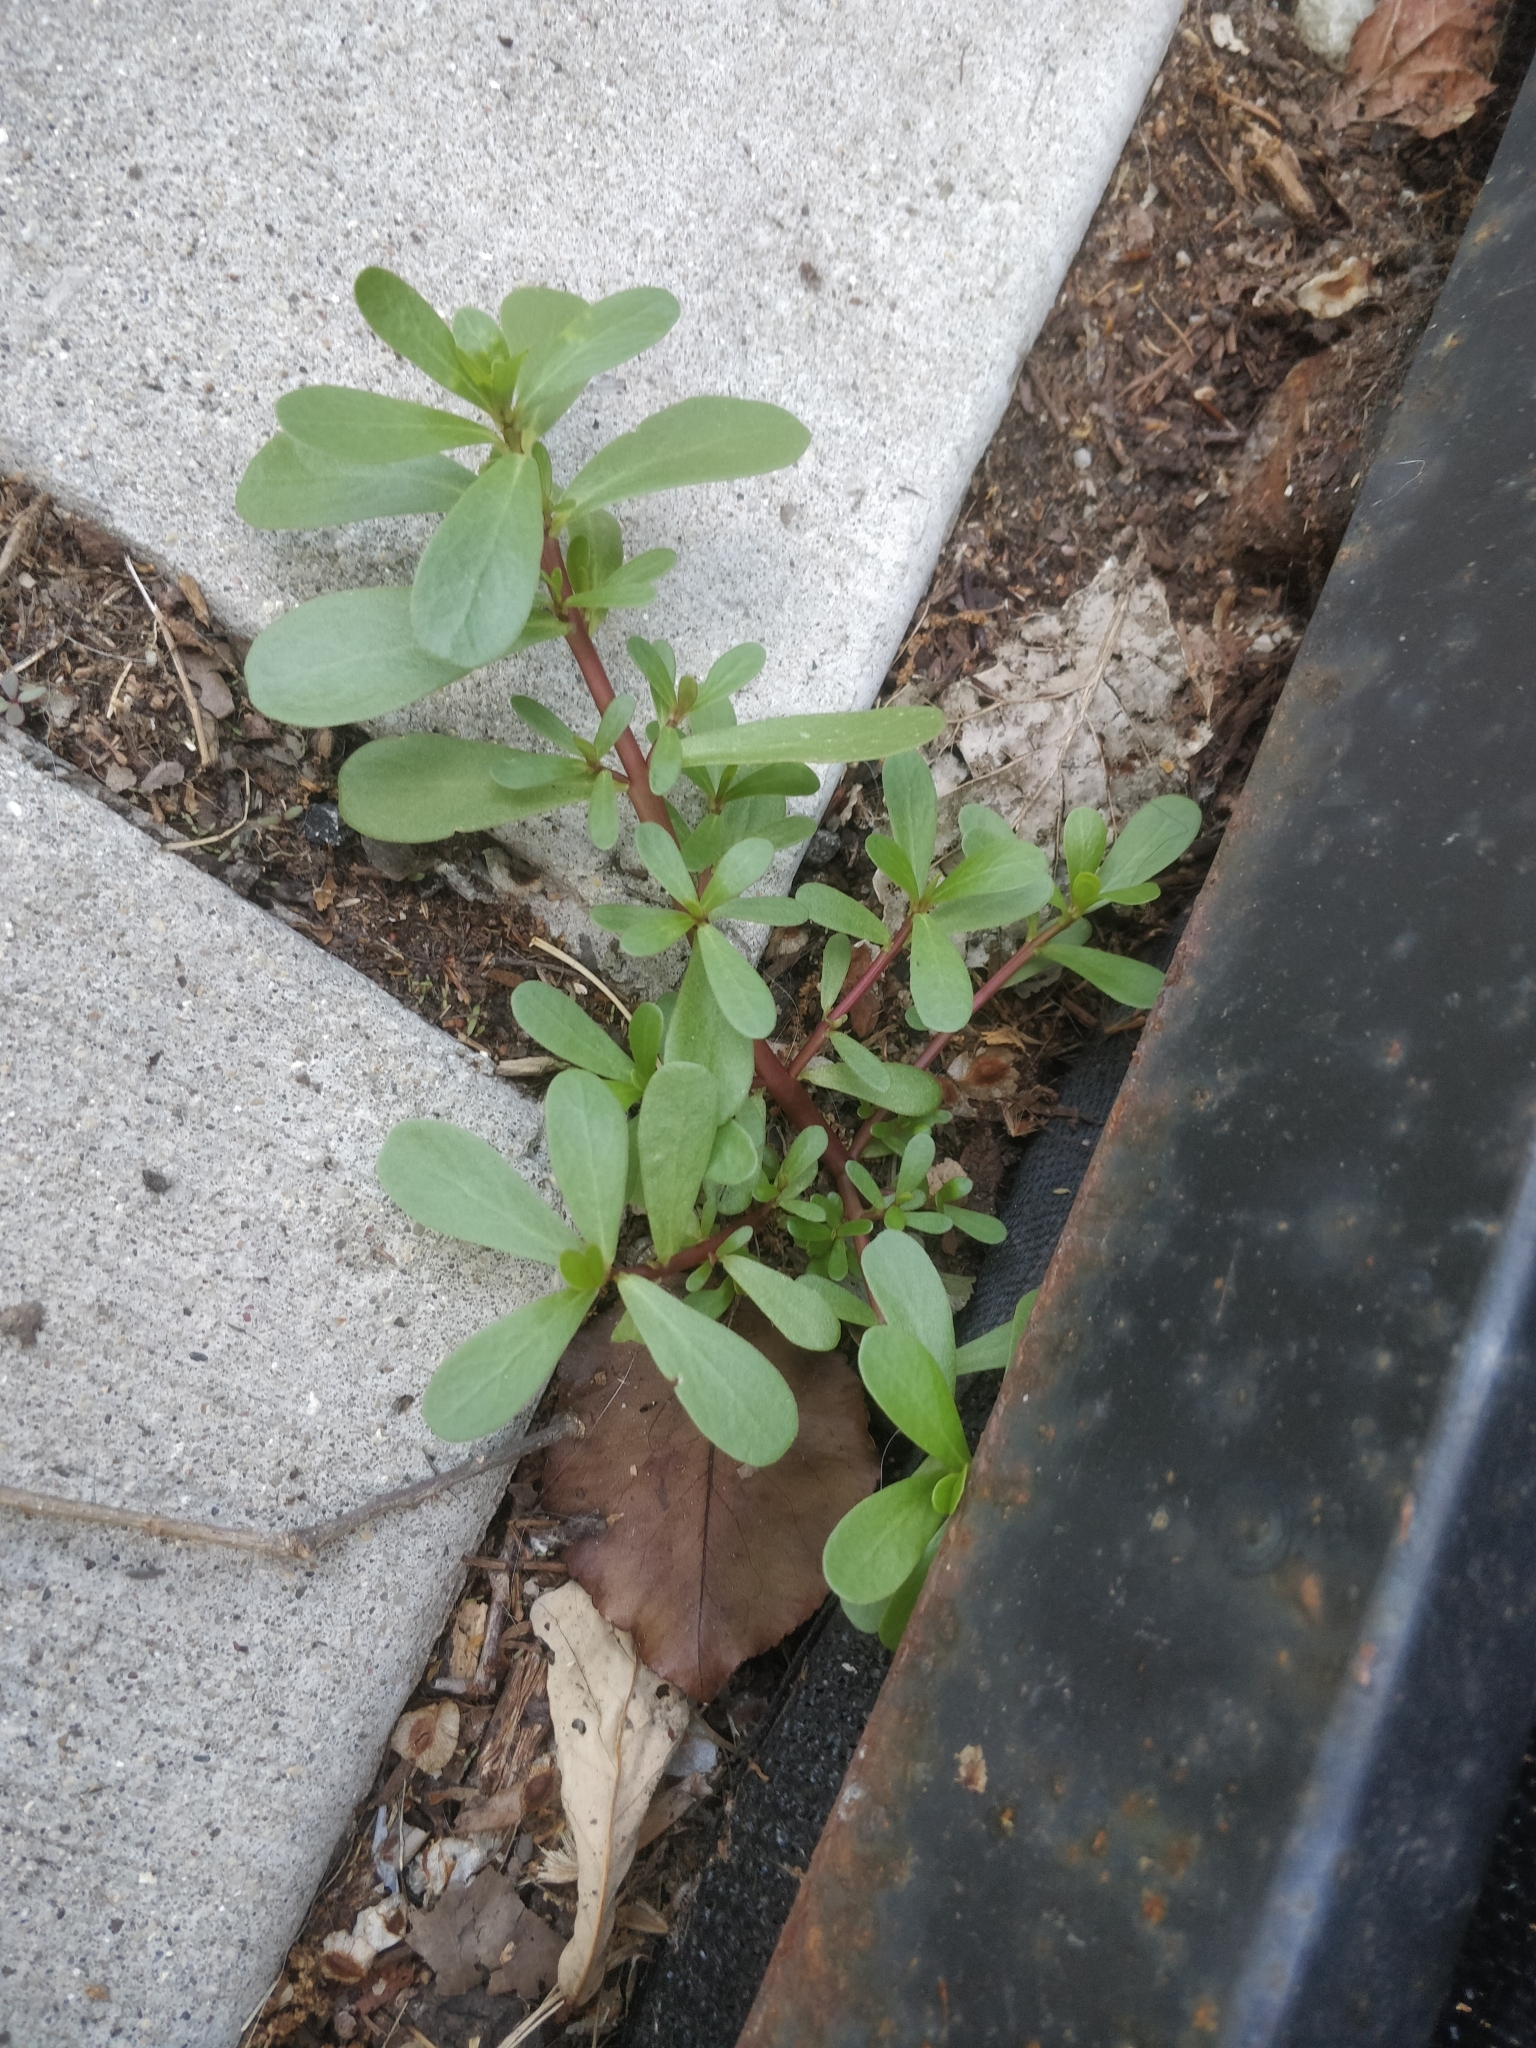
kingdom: Plantae
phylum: Tracheophyta
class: Magnoliopsida
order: Caryophyllales
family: Portulacaceae
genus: Portulaca
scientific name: Portulaca oleracea
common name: Common purslane
